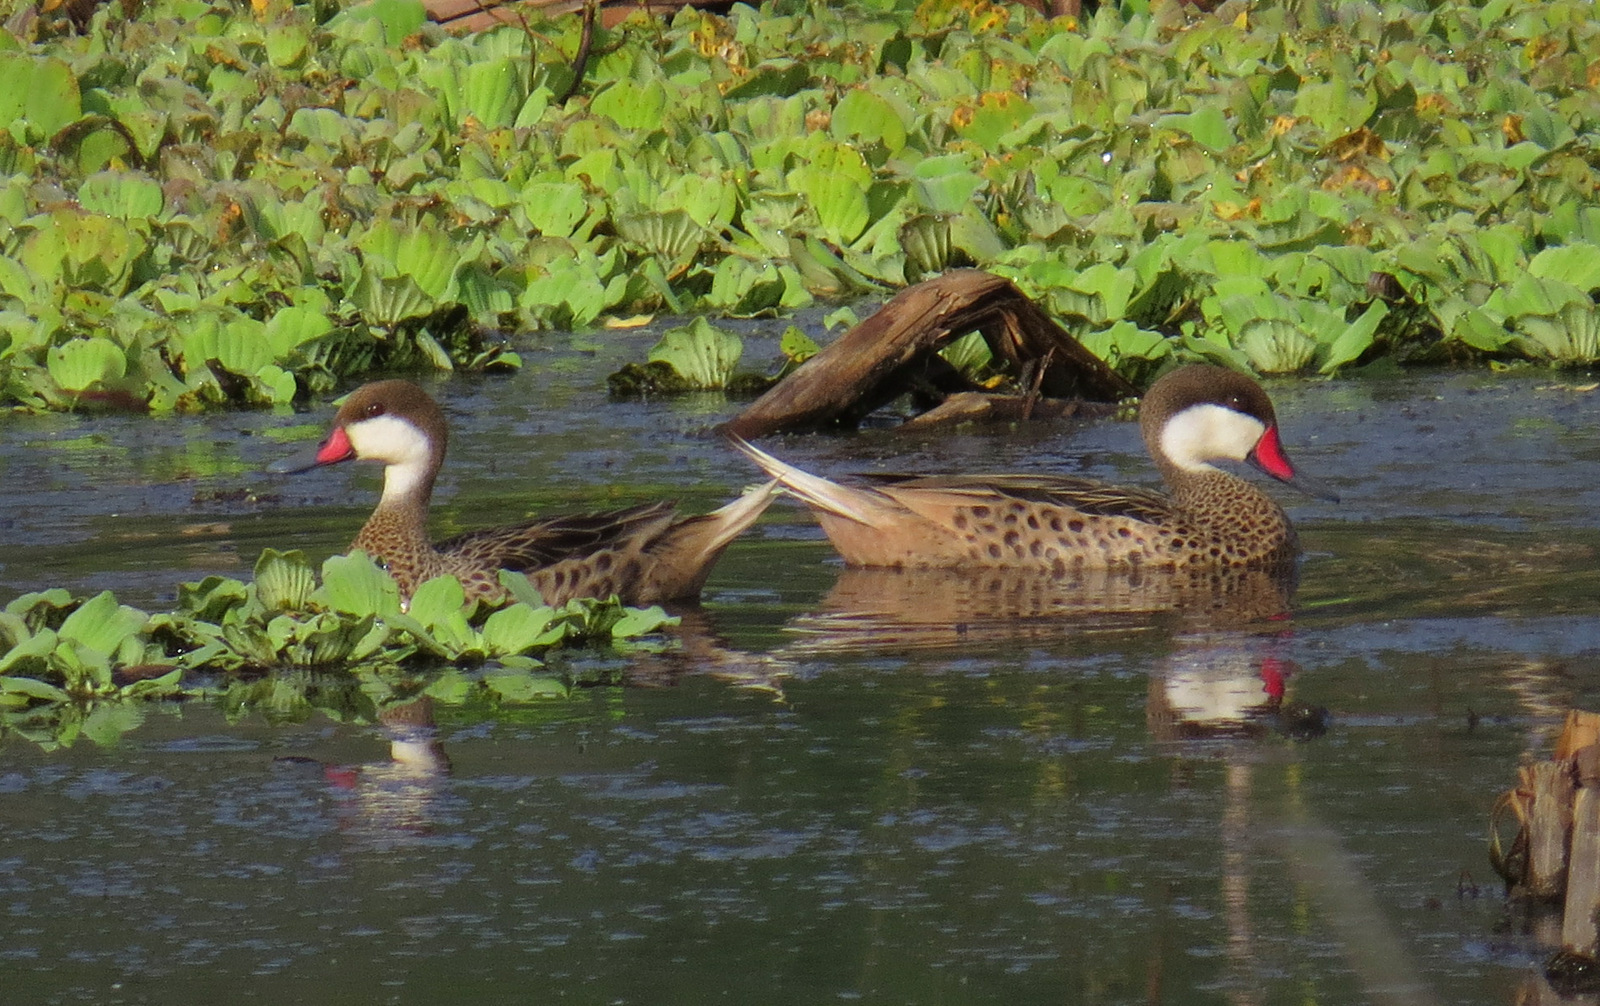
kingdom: Animalia
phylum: Chordata
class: Aves
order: Anseriformes
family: Anatidae
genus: Anas
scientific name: Anas bahamensis
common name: White-cheeked pintail
